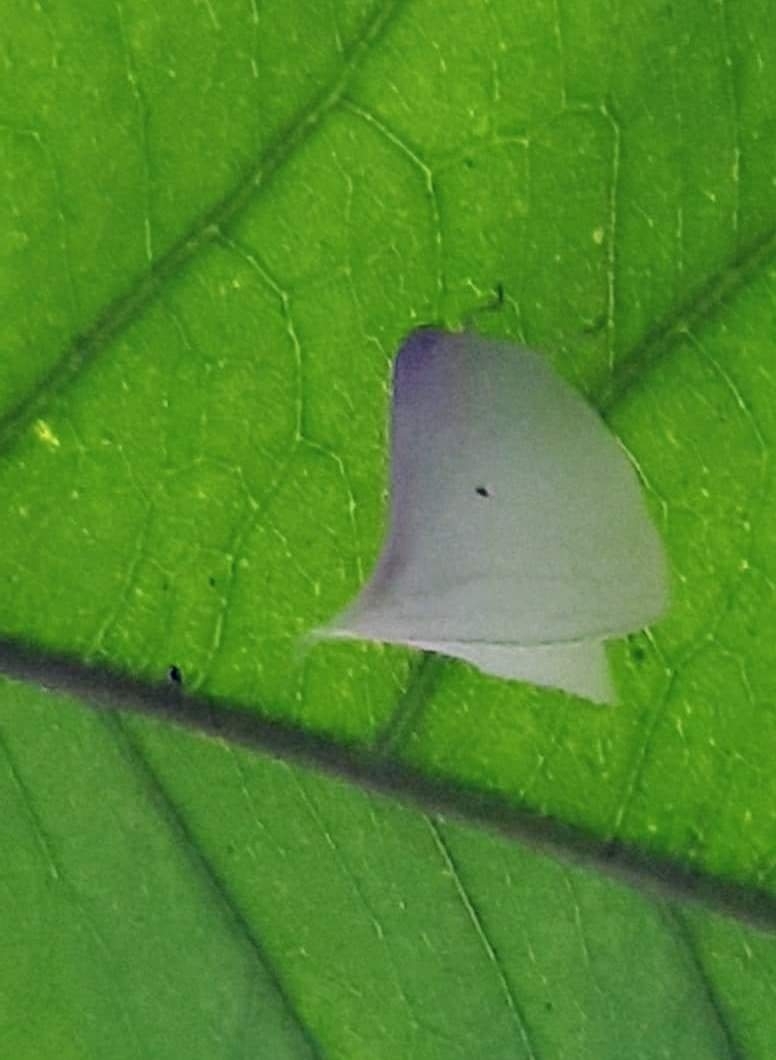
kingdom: Animalia
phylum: Arthropoda
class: Insecta
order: Hemiptera
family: Flatidae
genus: Lawana
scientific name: Lawana adscendens
